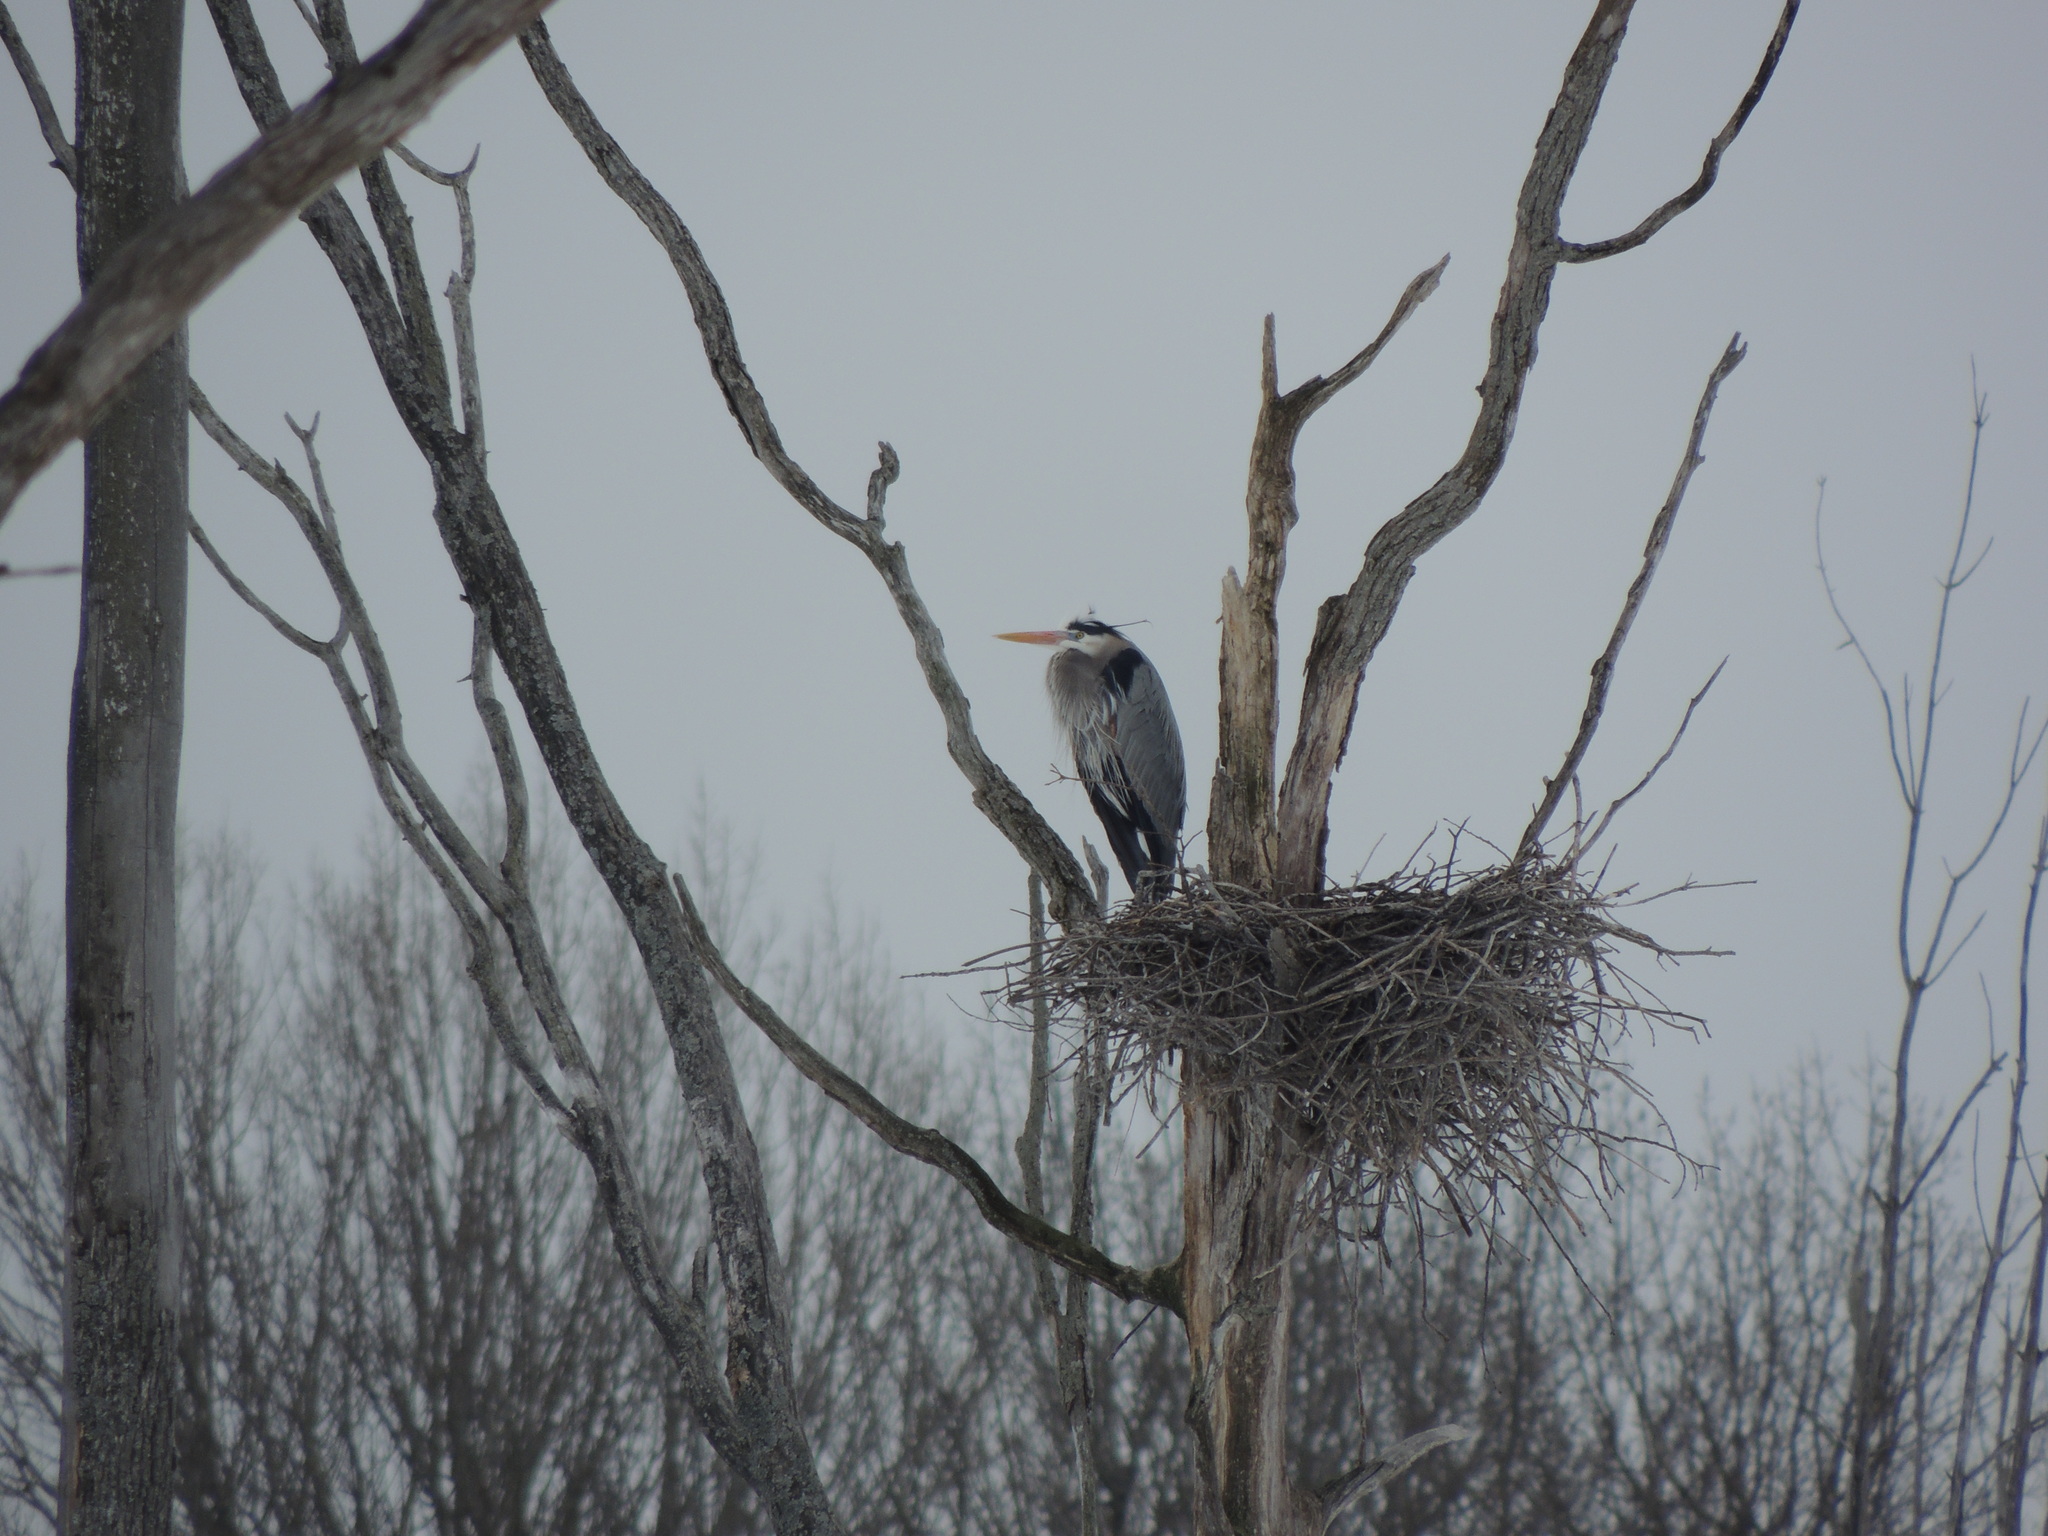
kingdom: Animalia
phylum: Chordata
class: Aves
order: Pelecaniformes
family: Ardeidae
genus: Ardea
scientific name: Ardea herodias
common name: Great blue heron
